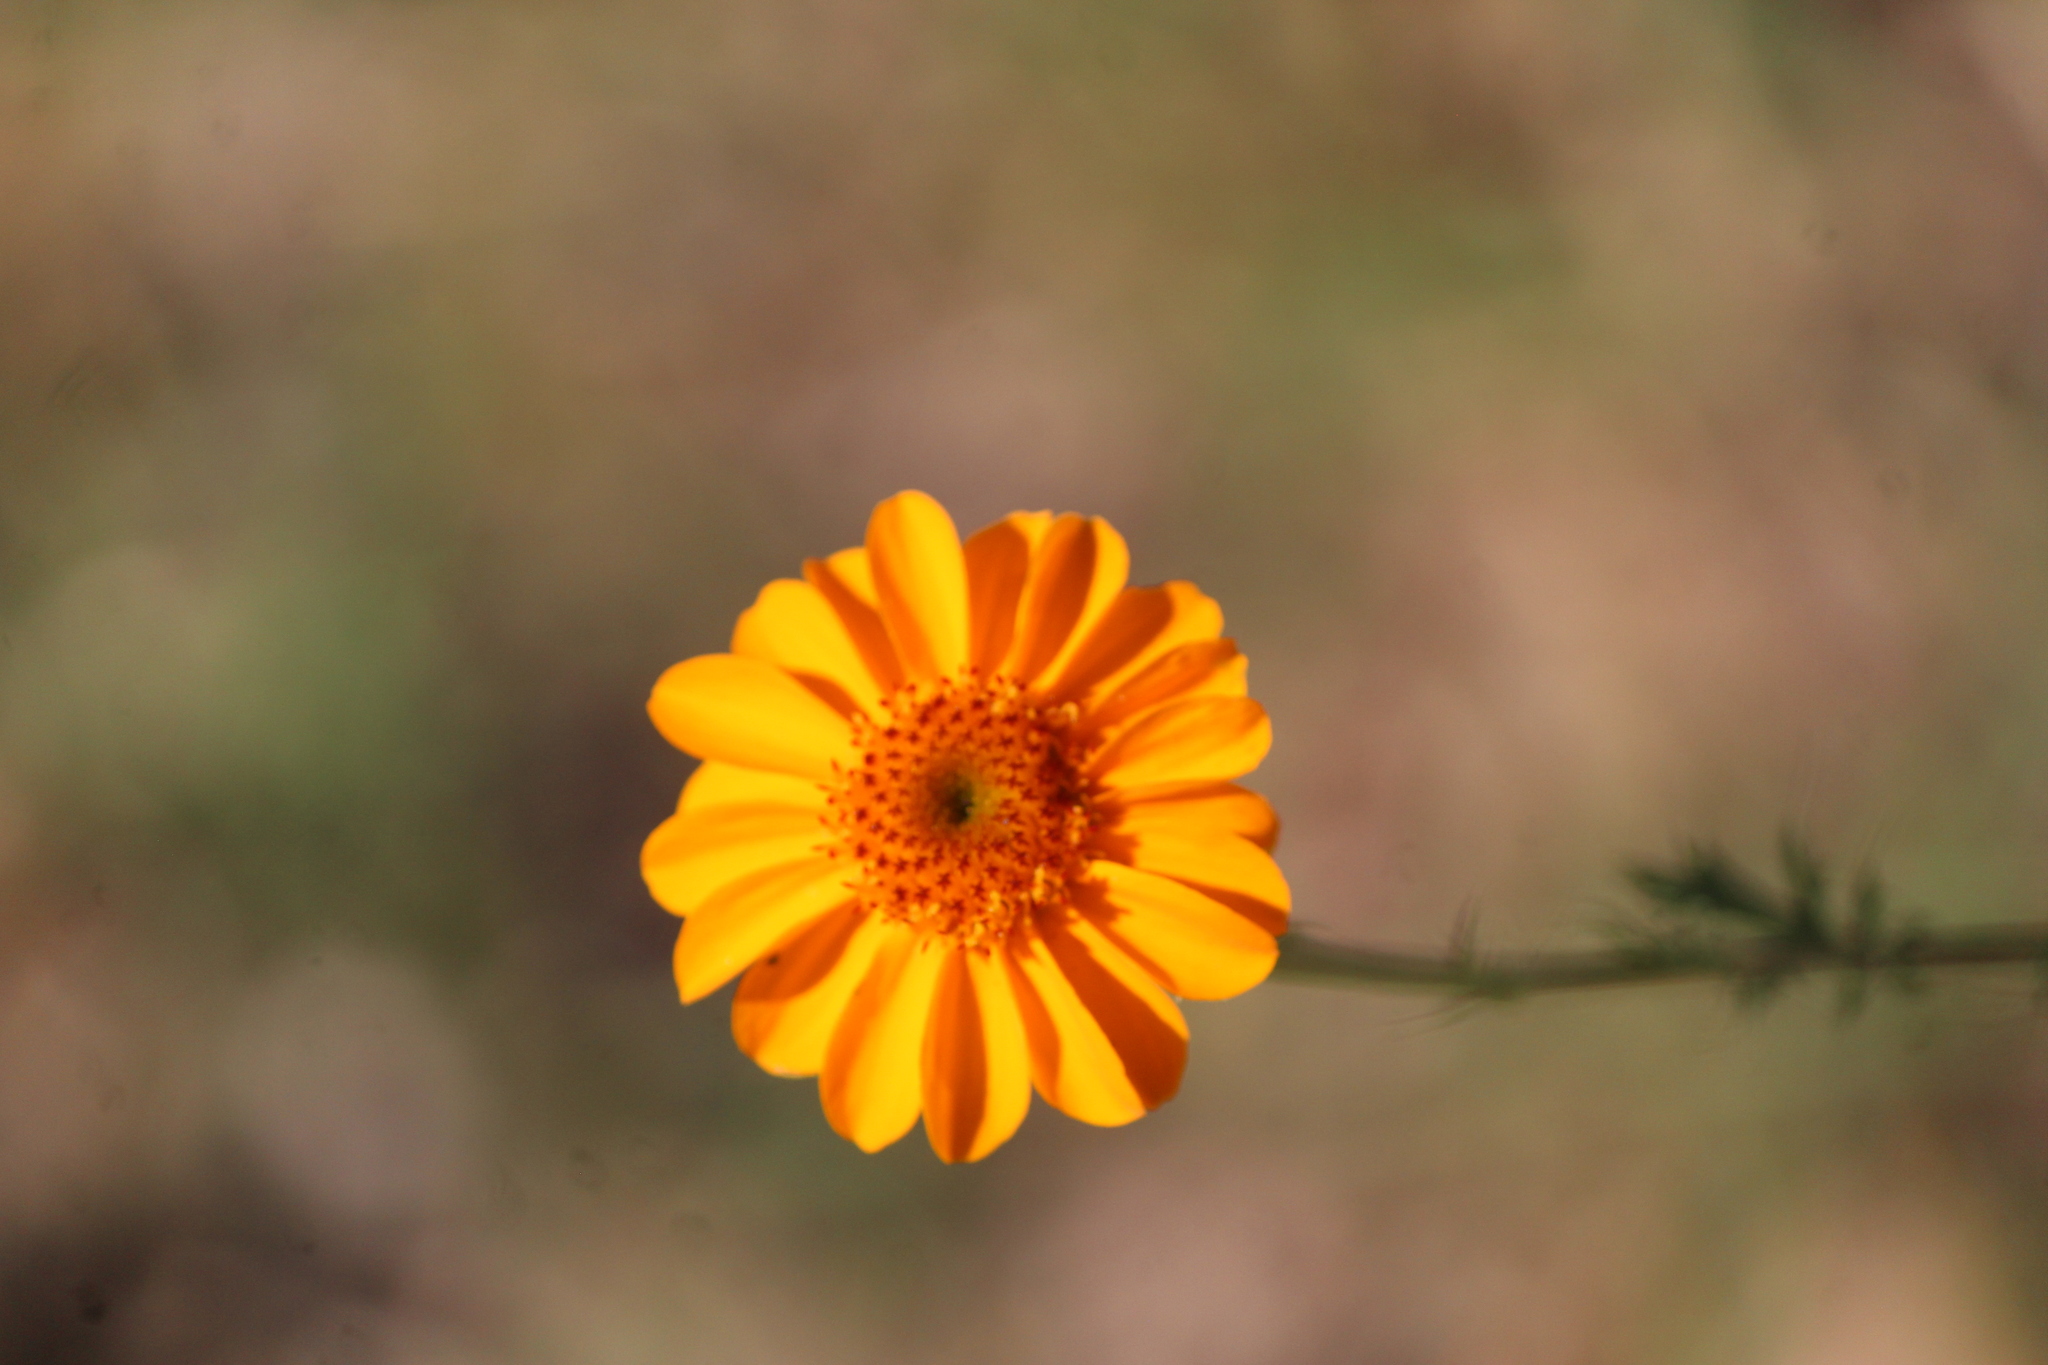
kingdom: Plantae
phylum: Tracheophyta
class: Magnoliopsida
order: Asterales
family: Asteraceae
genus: Adenophyllum
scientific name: Adenophyllum cancellatum
